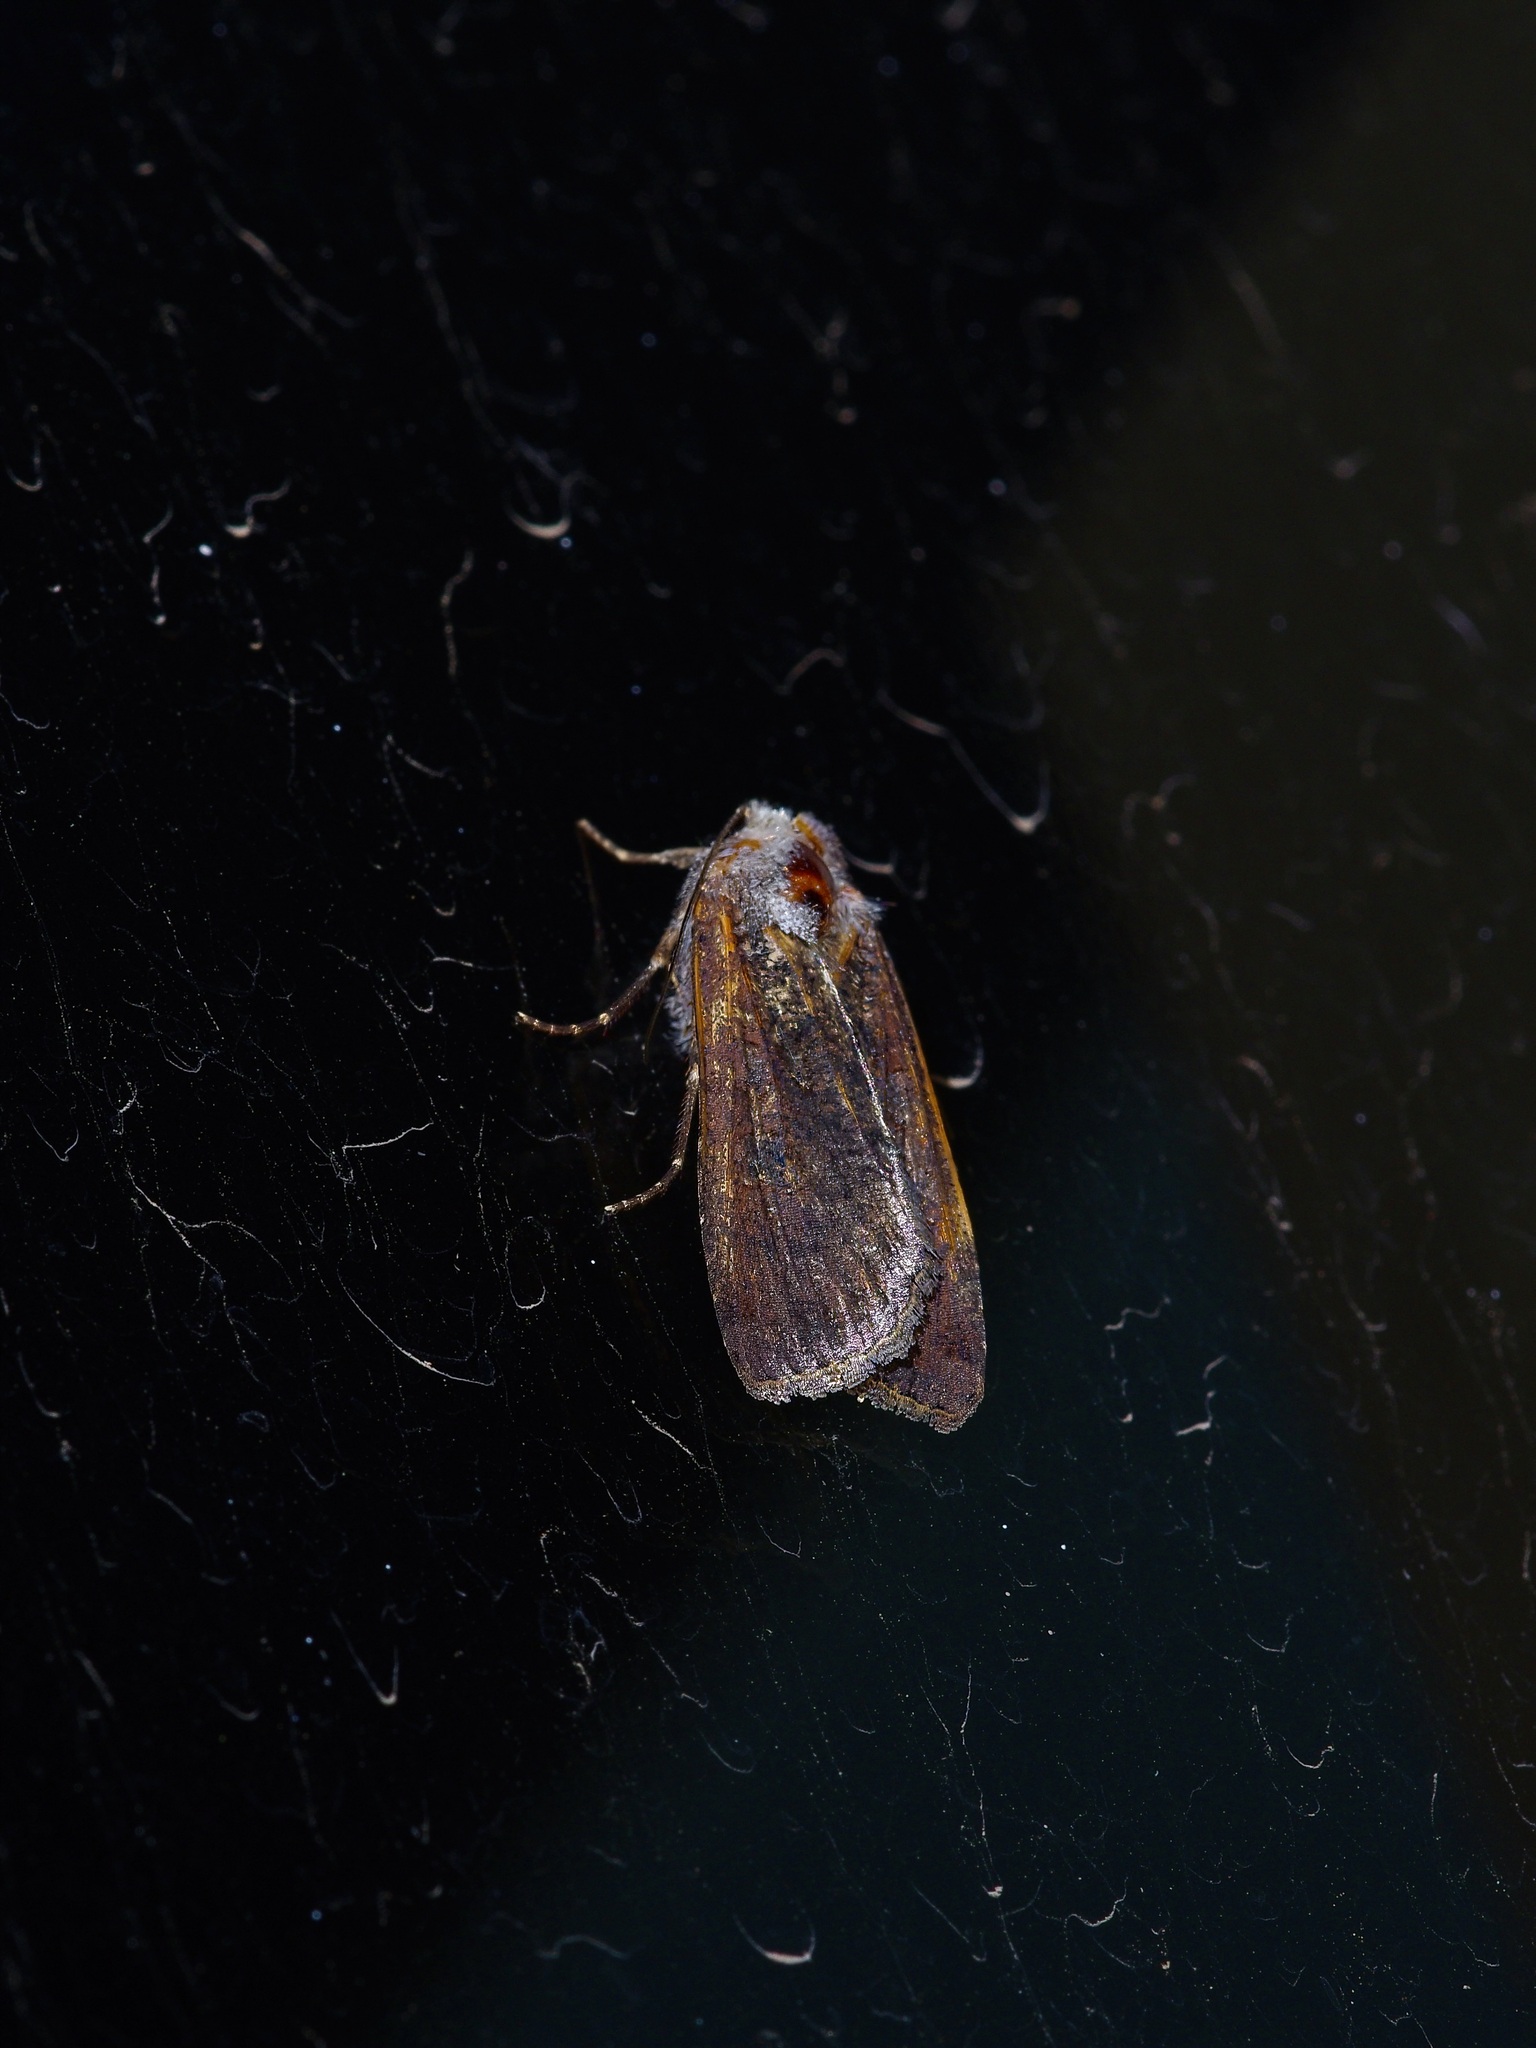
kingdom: Animalia
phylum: Arthropoda
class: Insecta
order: Lepidoptera
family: Noctuidae
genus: Peridroma
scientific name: Peridroma saucia
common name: Pearly underwing
